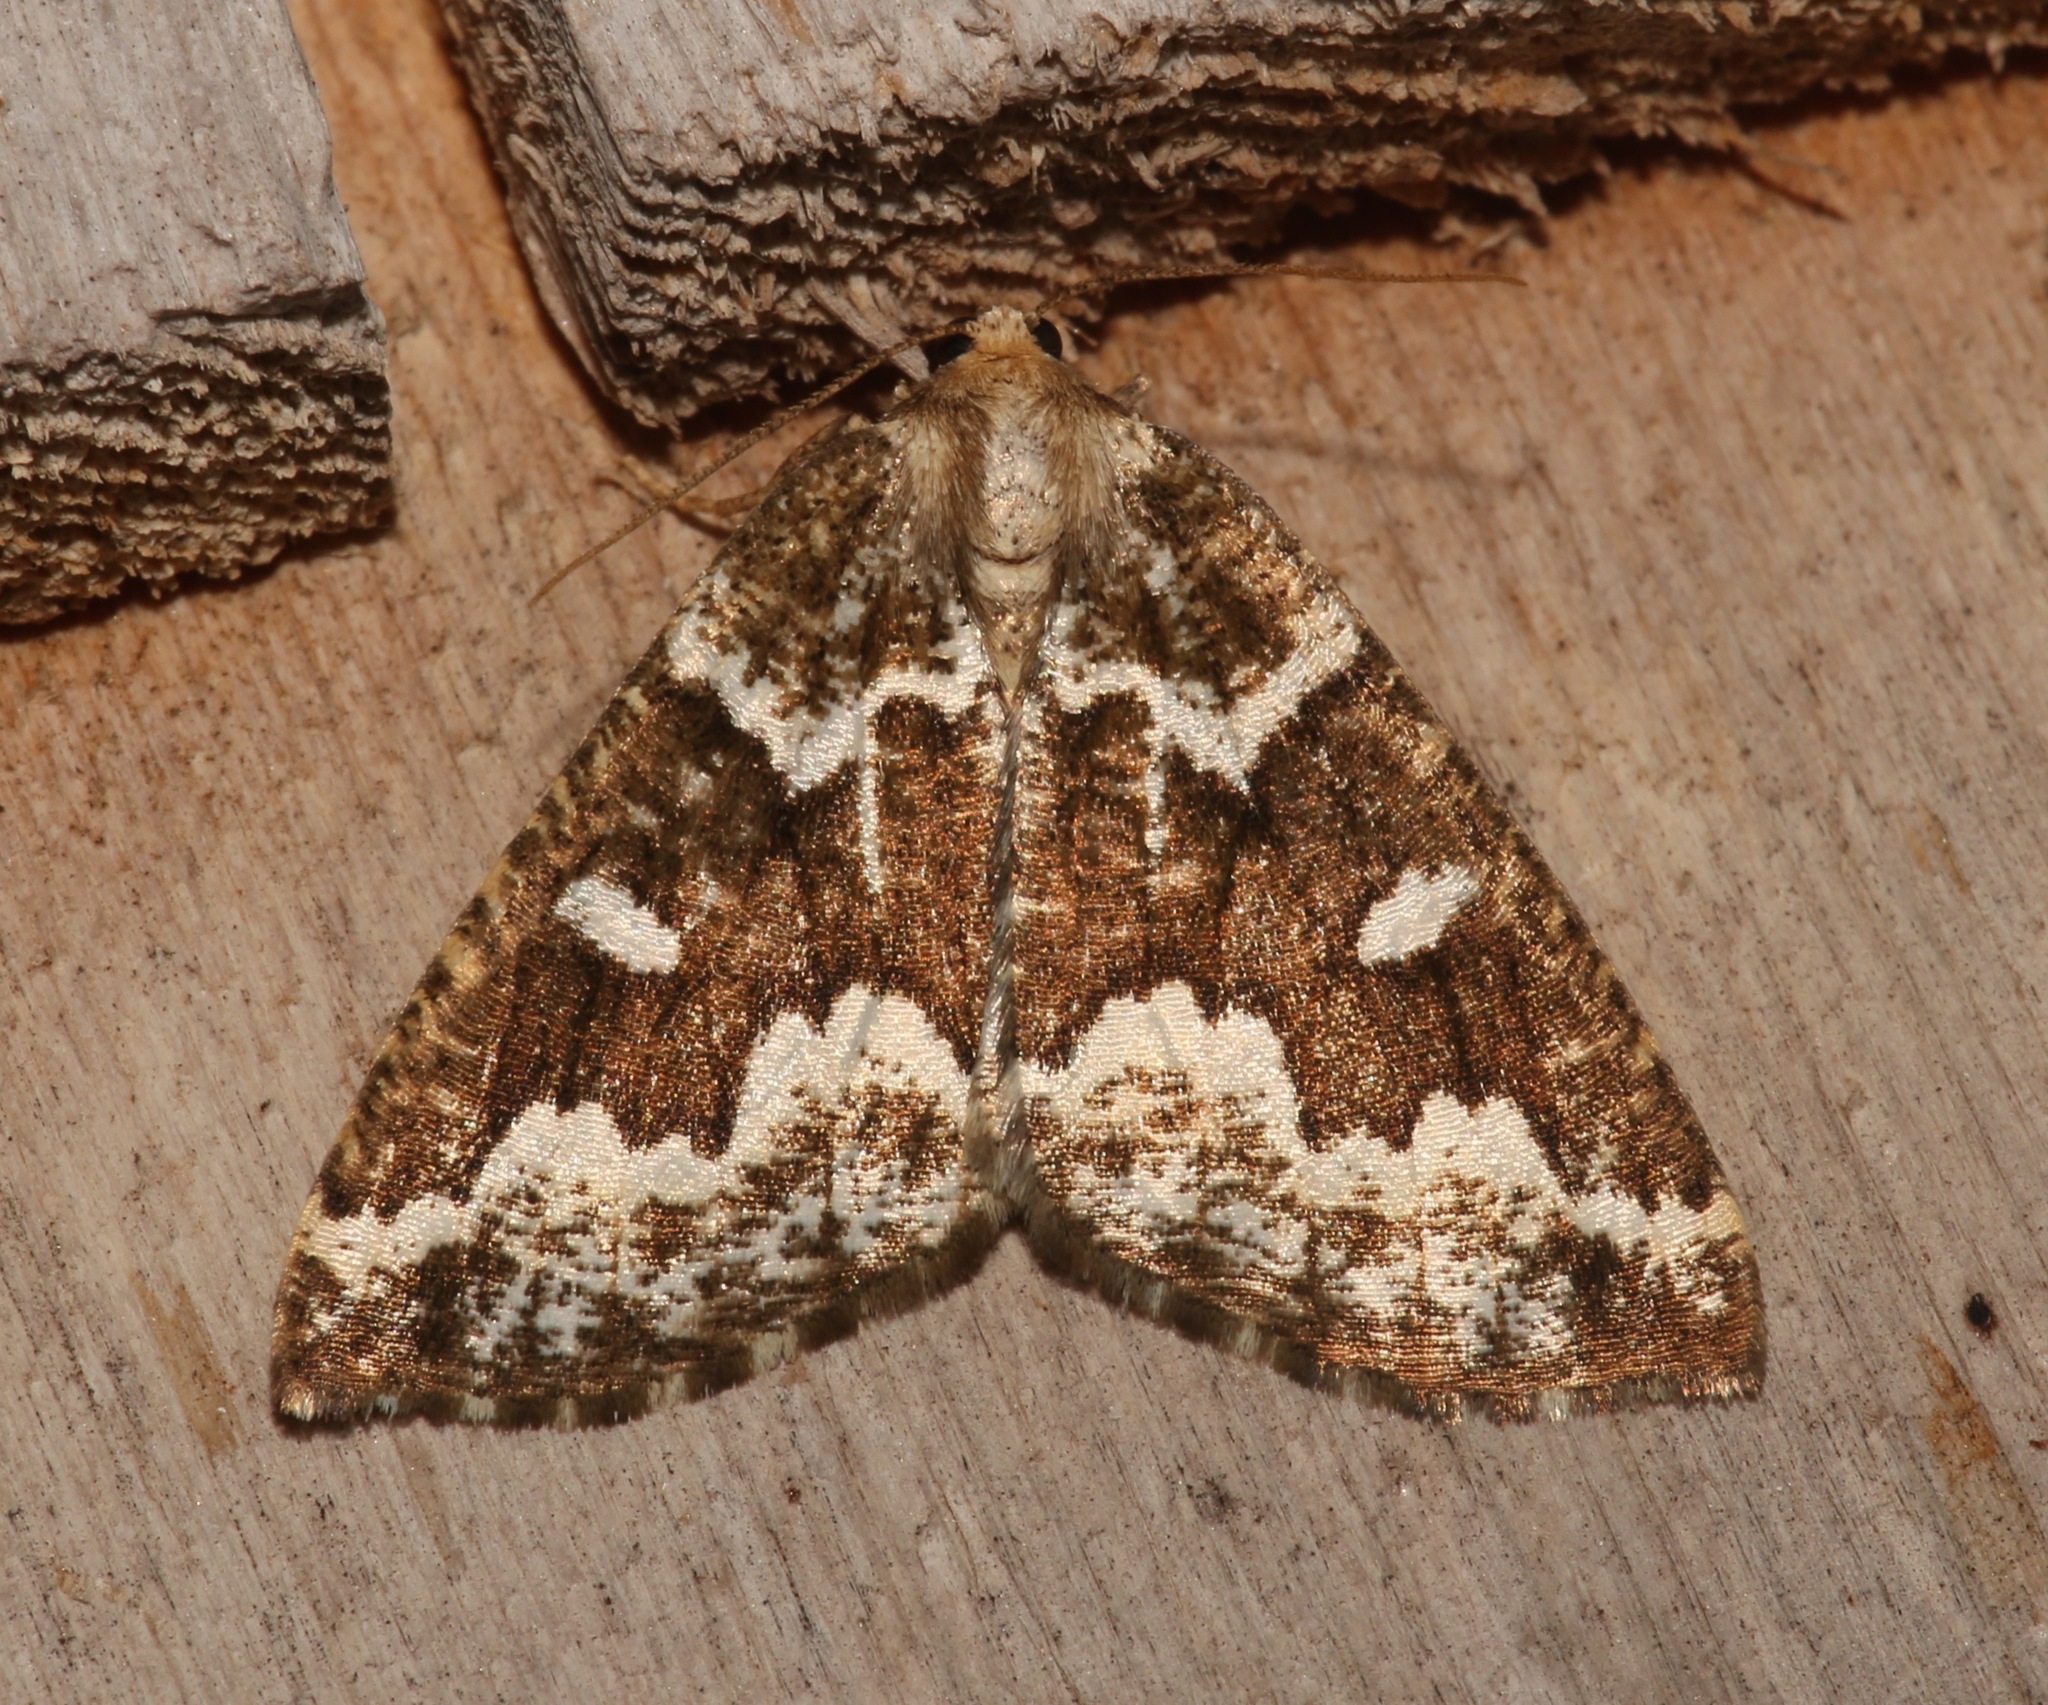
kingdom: Animalia
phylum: Arthropoda
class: Insecta
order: Lepidoptera
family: Geometridae
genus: Caripeta
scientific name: Caripeta divisata
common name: Gray spruce looper
